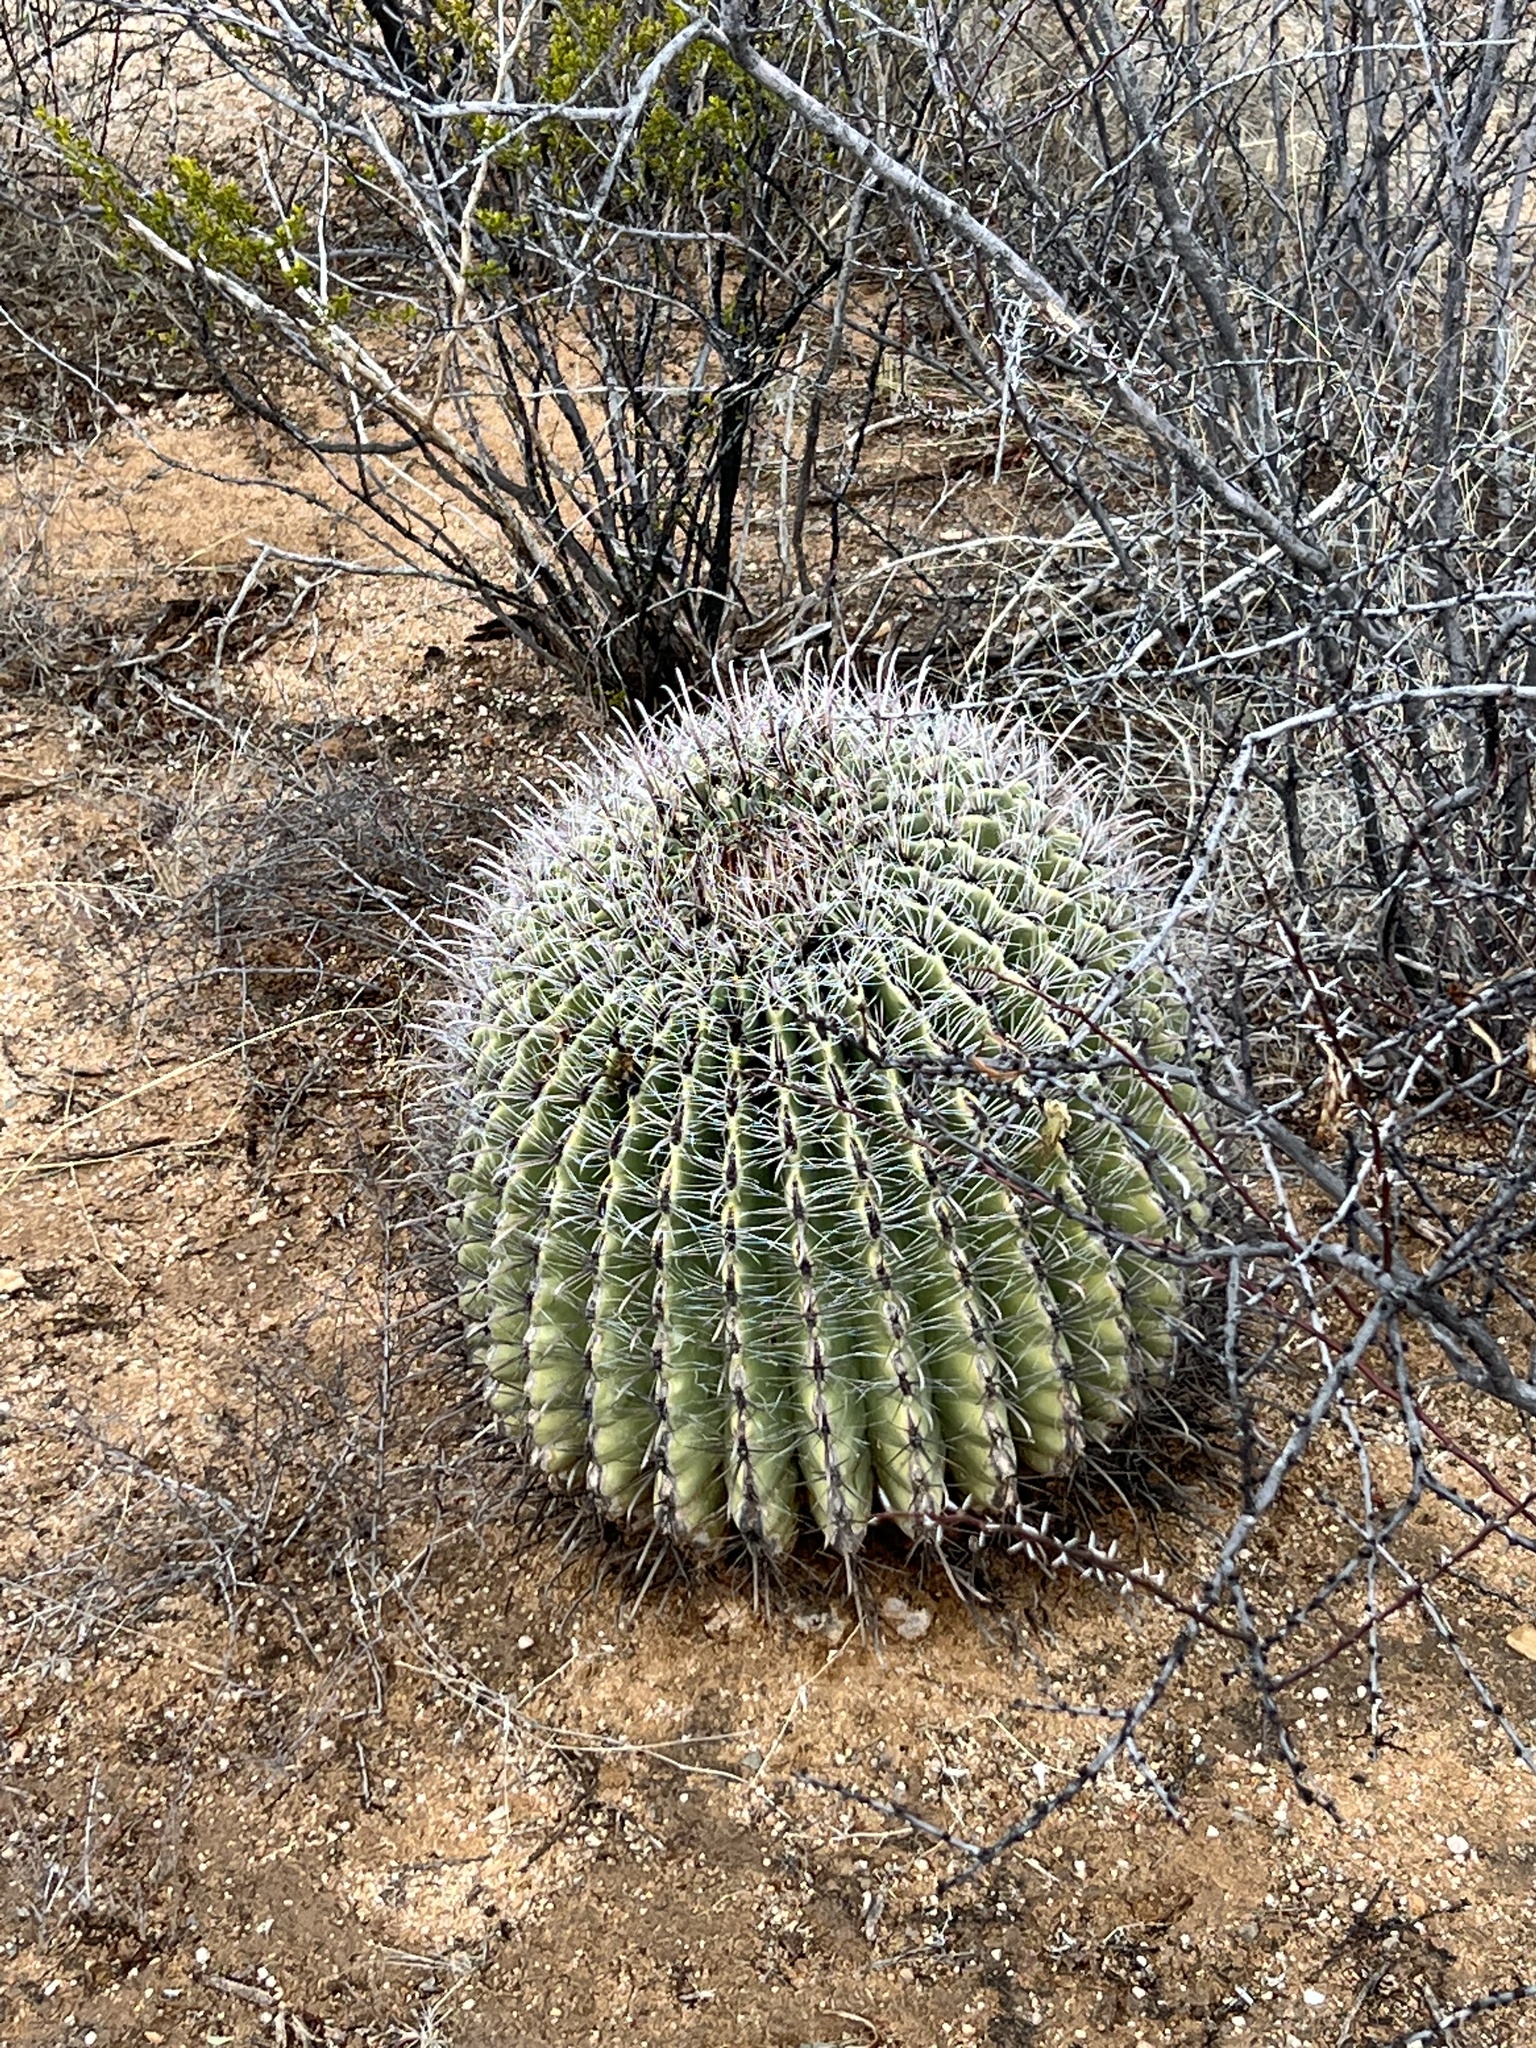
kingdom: Plantae
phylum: Tracheophyta
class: Magnoliopsida
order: Caryophyllales
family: Cactaceae
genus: Ferocactus
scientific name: Ferocactus wislizeni
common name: Candy barrel cactus
